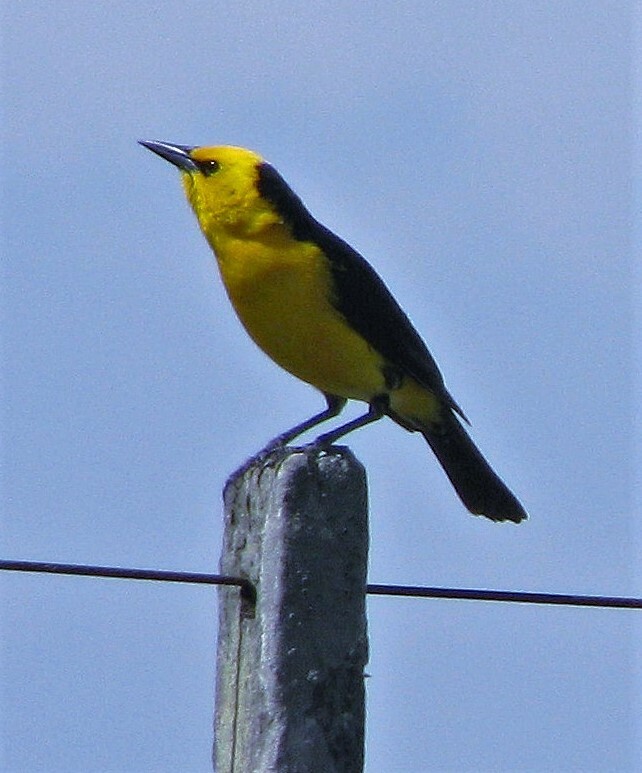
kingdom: Animalia
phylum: Chordata
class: Aves
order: Passeriformes
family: Icteridae
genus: Xanthopsar
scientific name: Xanthopsar flavus
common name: Saffron-cowled blackbird
